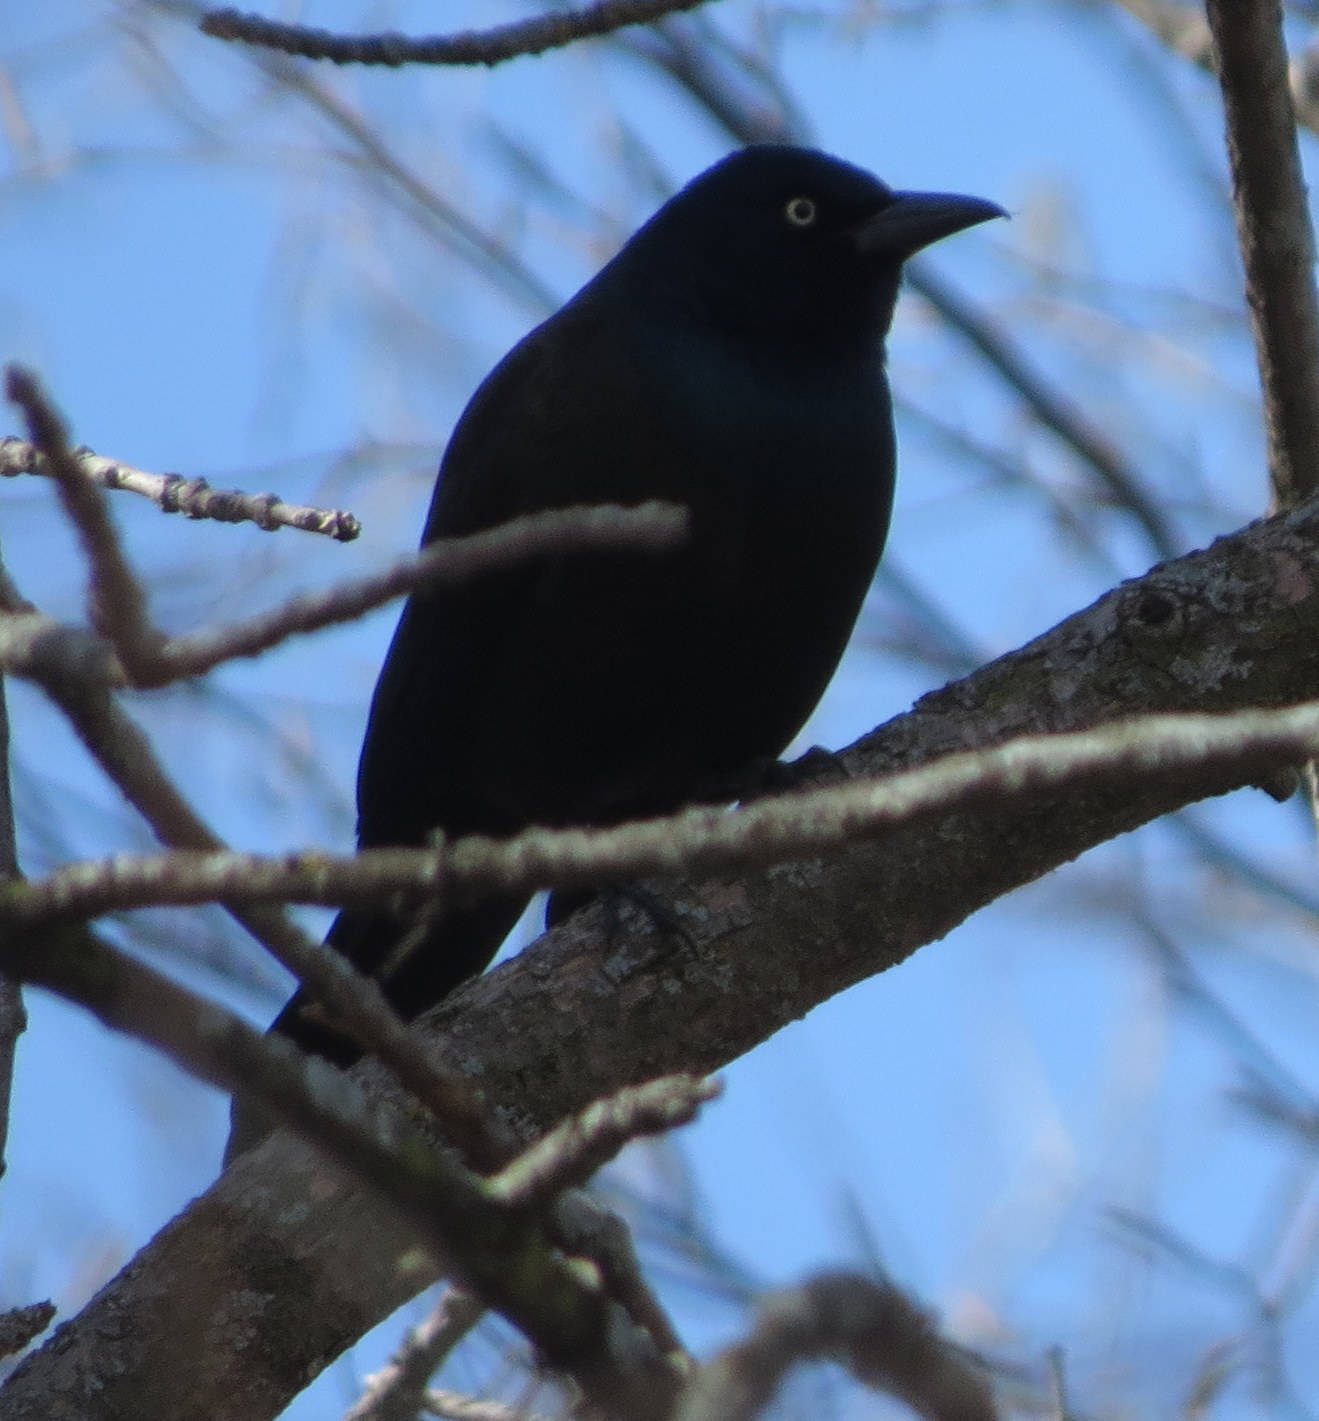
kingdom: Animalia
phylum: Chordata
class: Aves
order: Passeriformes
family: Icteridae
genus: Quiscalus
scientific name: Quiscalus quiscula
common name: Common grackle
